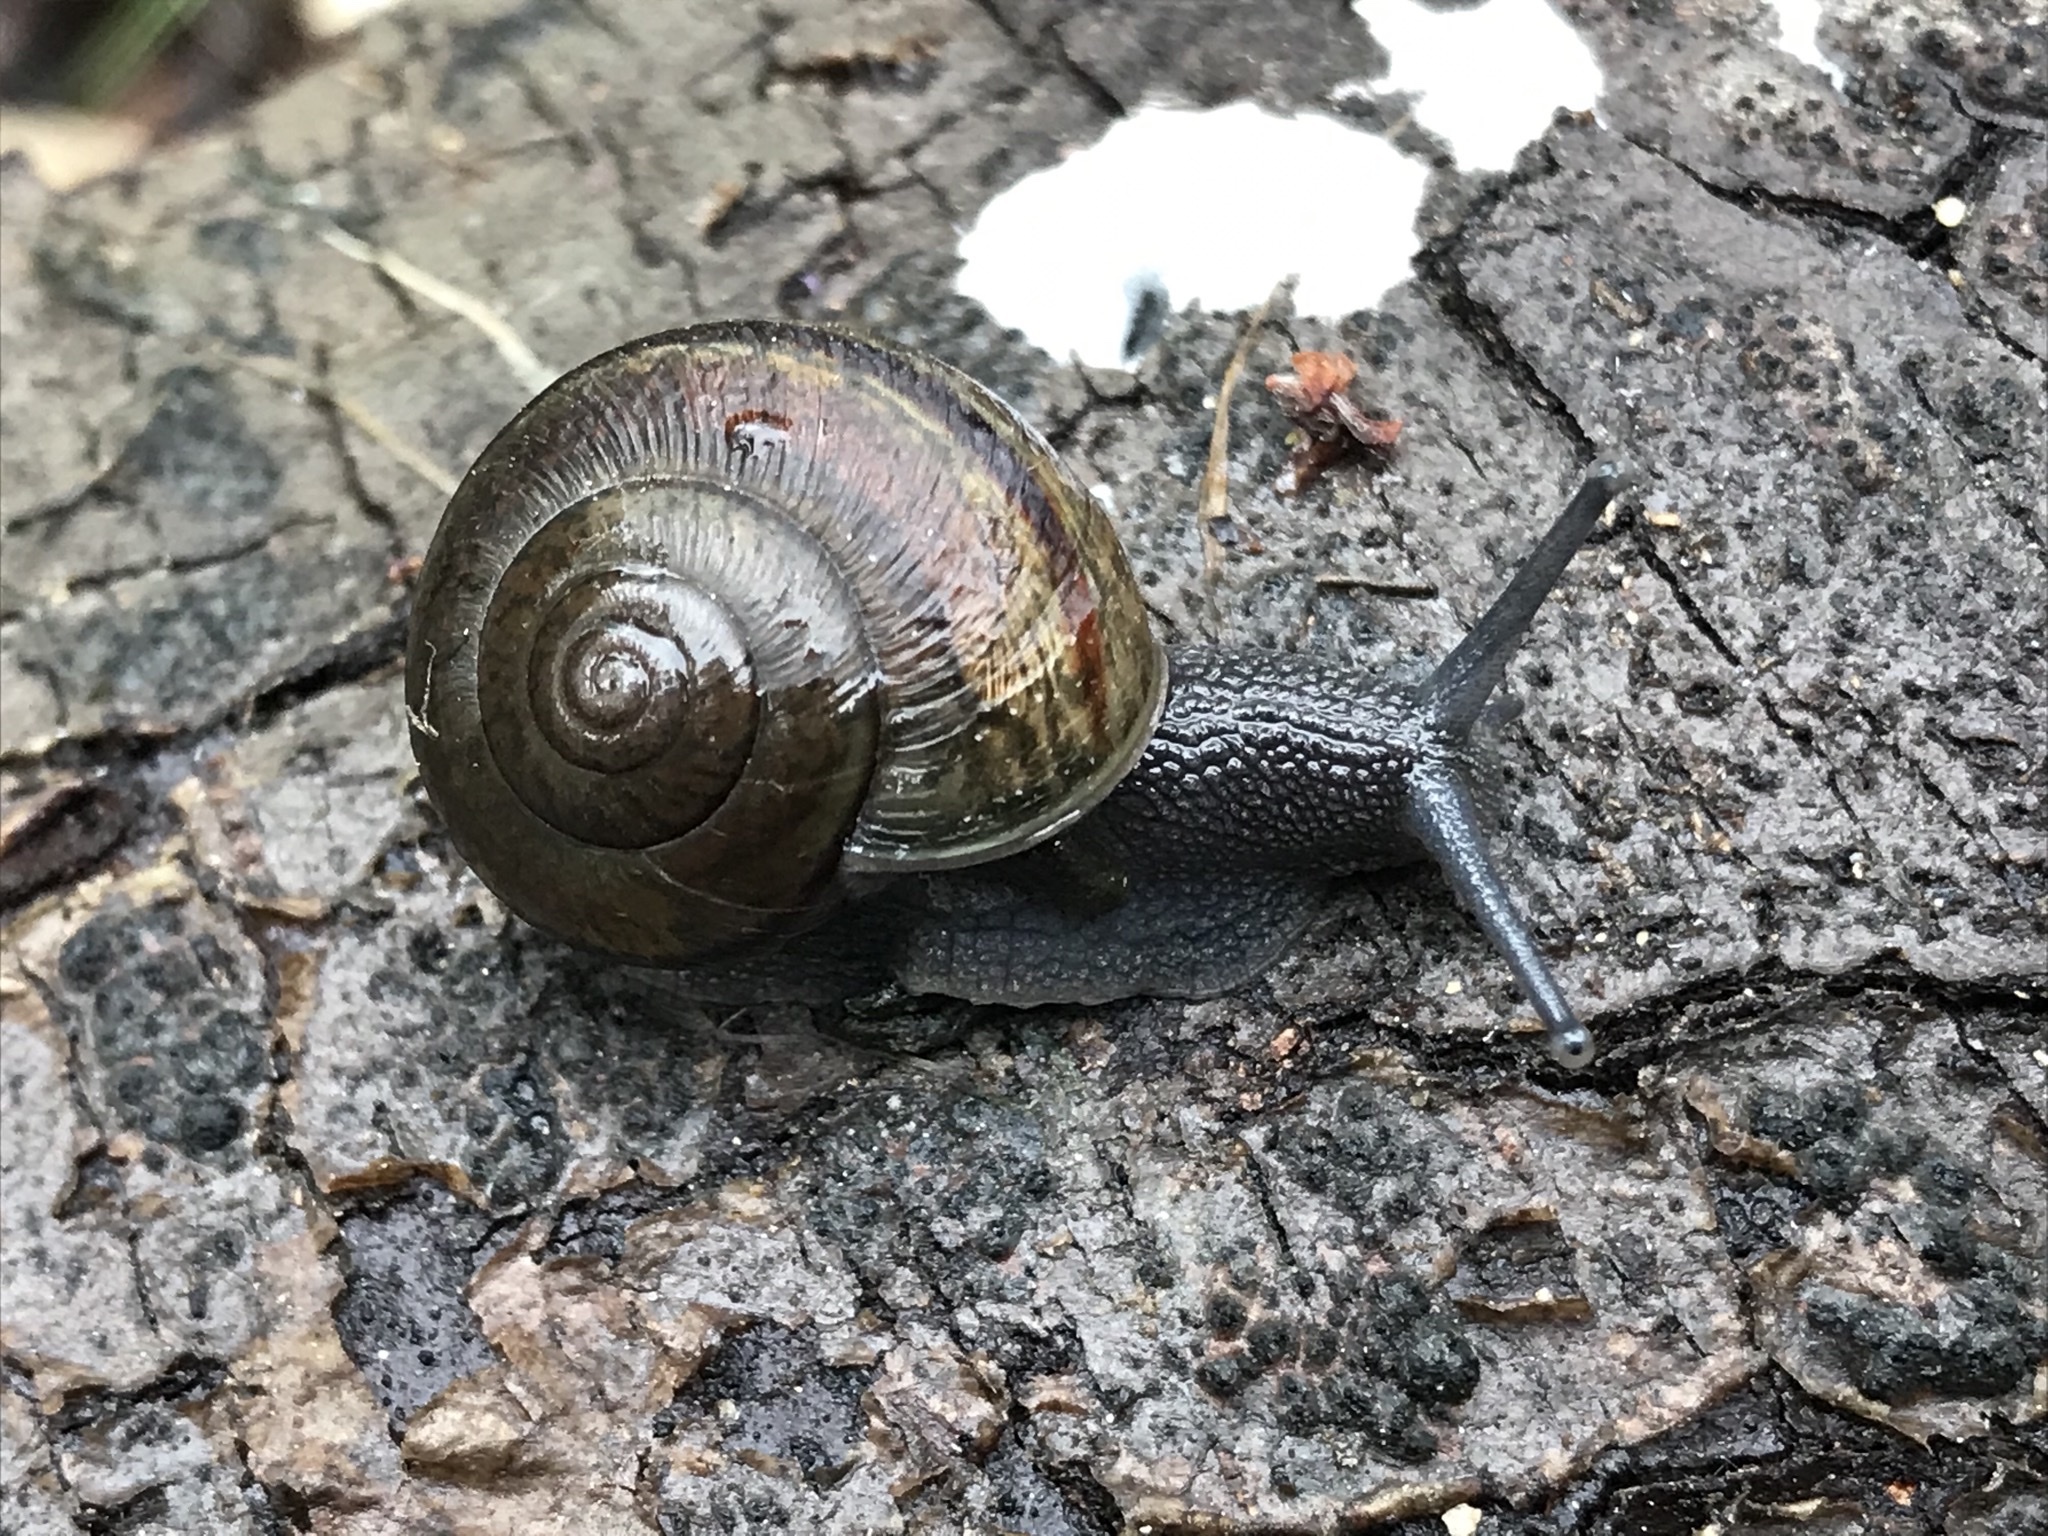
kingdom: Animalia
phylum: Mollusca
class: Gastropoda
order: Stylommatophora
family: Xanthonychidae
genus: Helminthoglypta
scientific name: Helminthoglypta tudiculata
